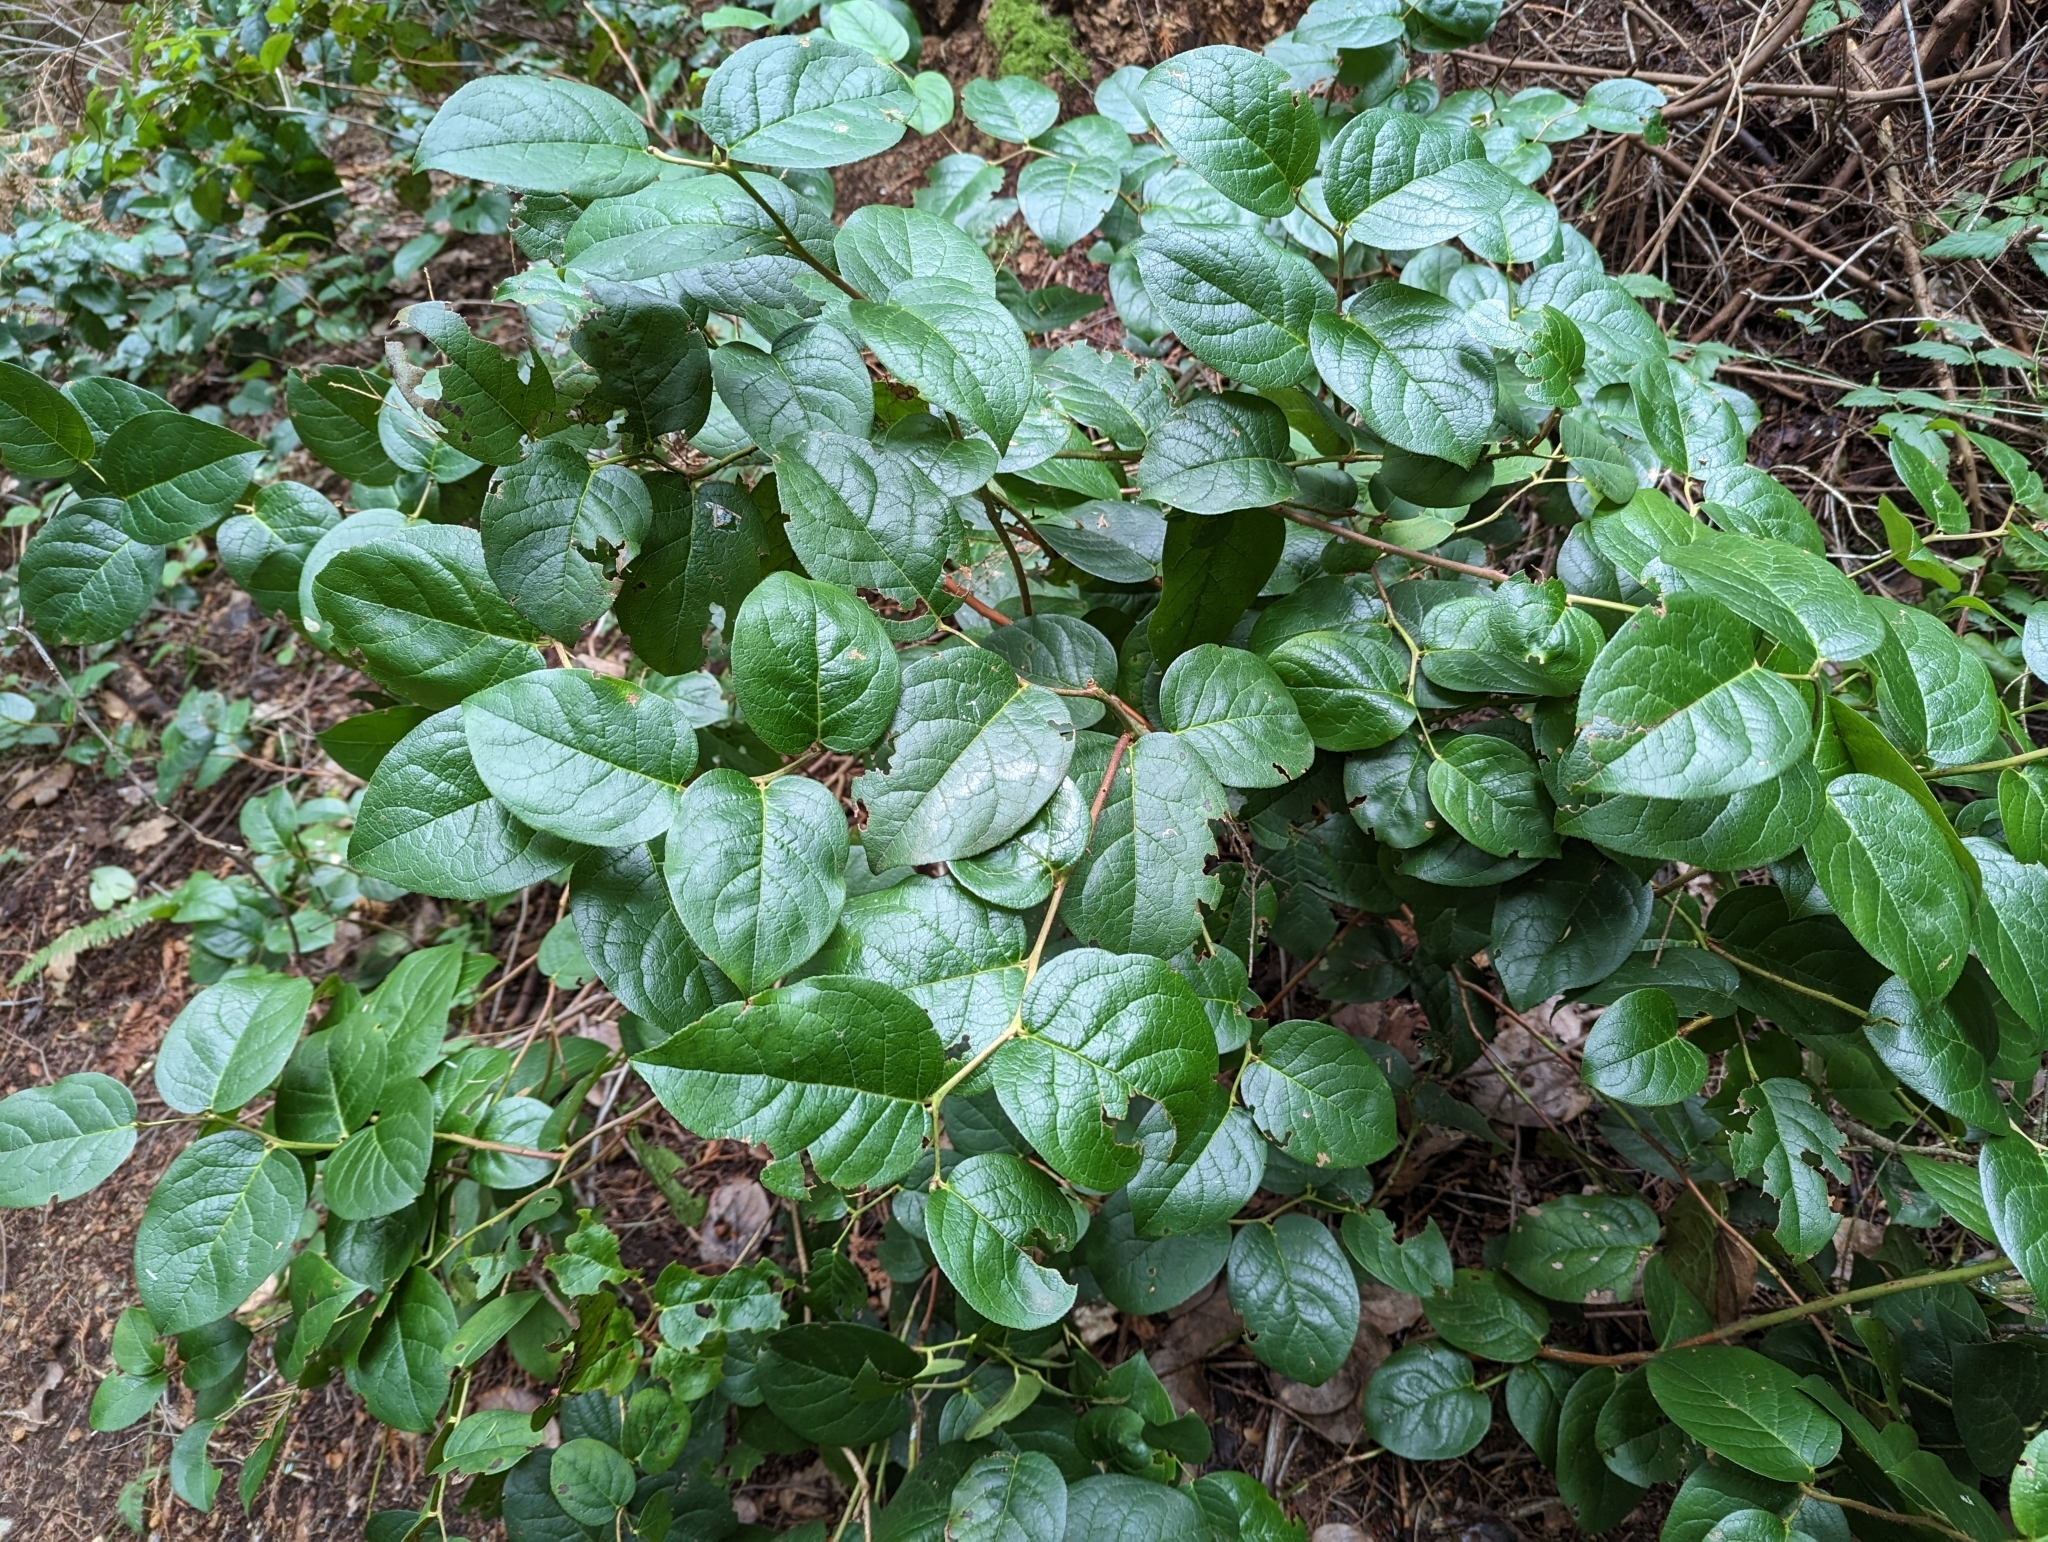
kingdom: Plantae
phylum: Tracheophyta
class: Magnoliopsida
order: Ericales
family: Ericaceae
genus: Gaultheria
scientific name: Gaultheria shallon
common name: Shallon
